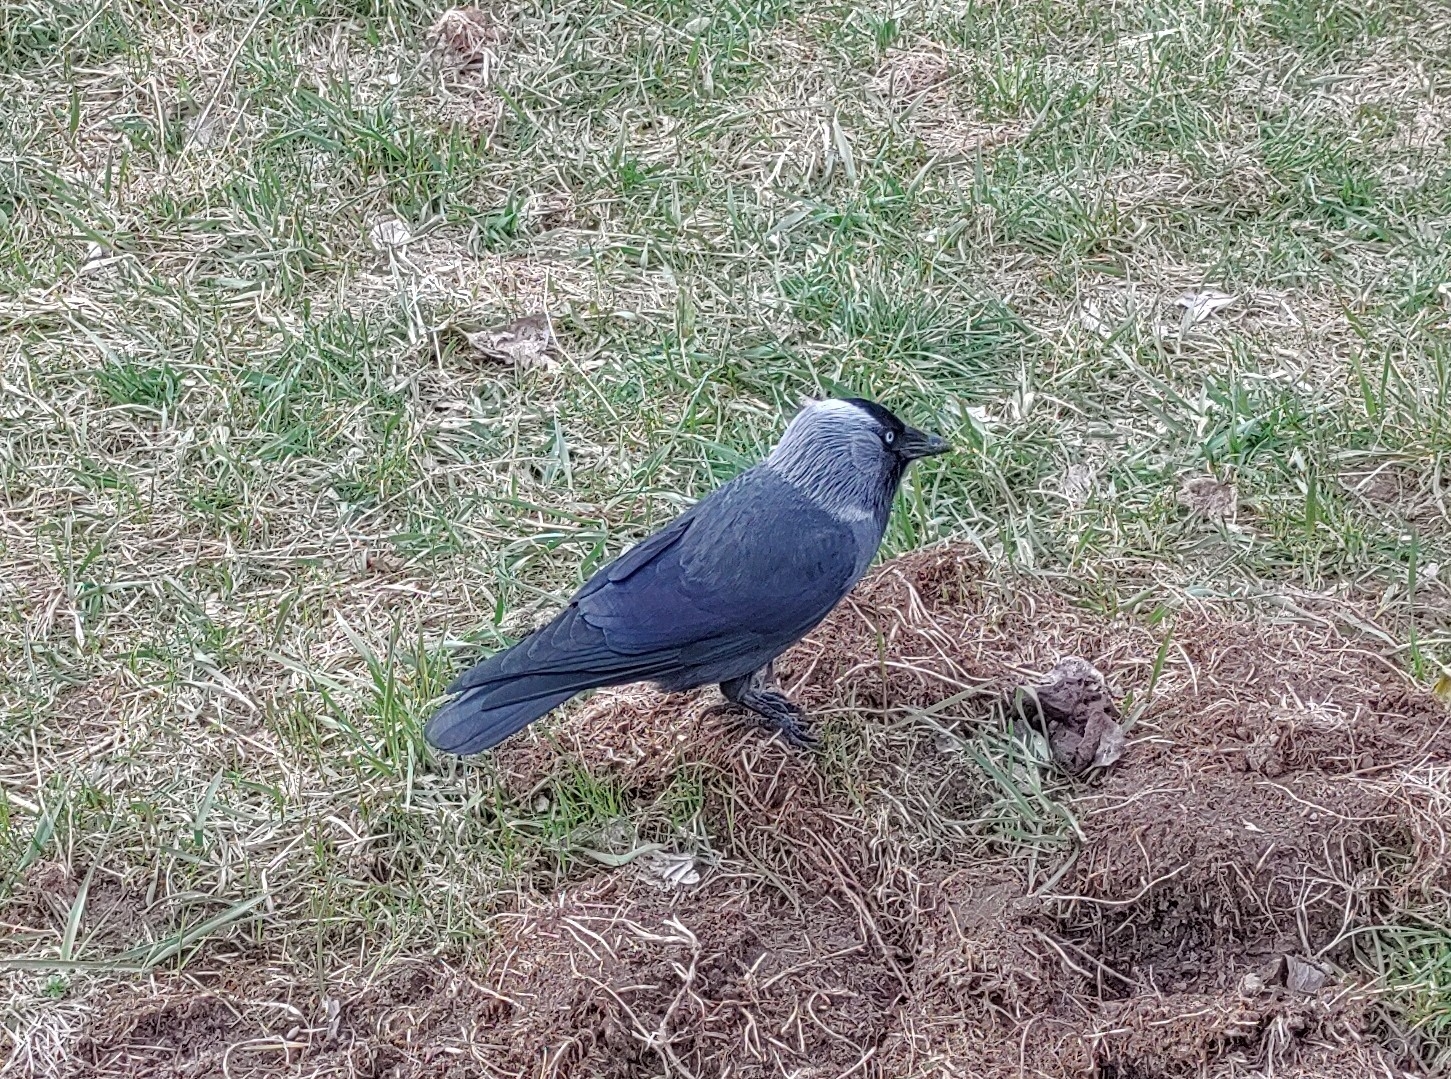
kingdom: Animalia
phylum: Chordata
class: Aves
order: Passeriformes
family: Corvidae
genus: Coloeus
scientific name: Coloeus monedula
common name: Western jackdaw
